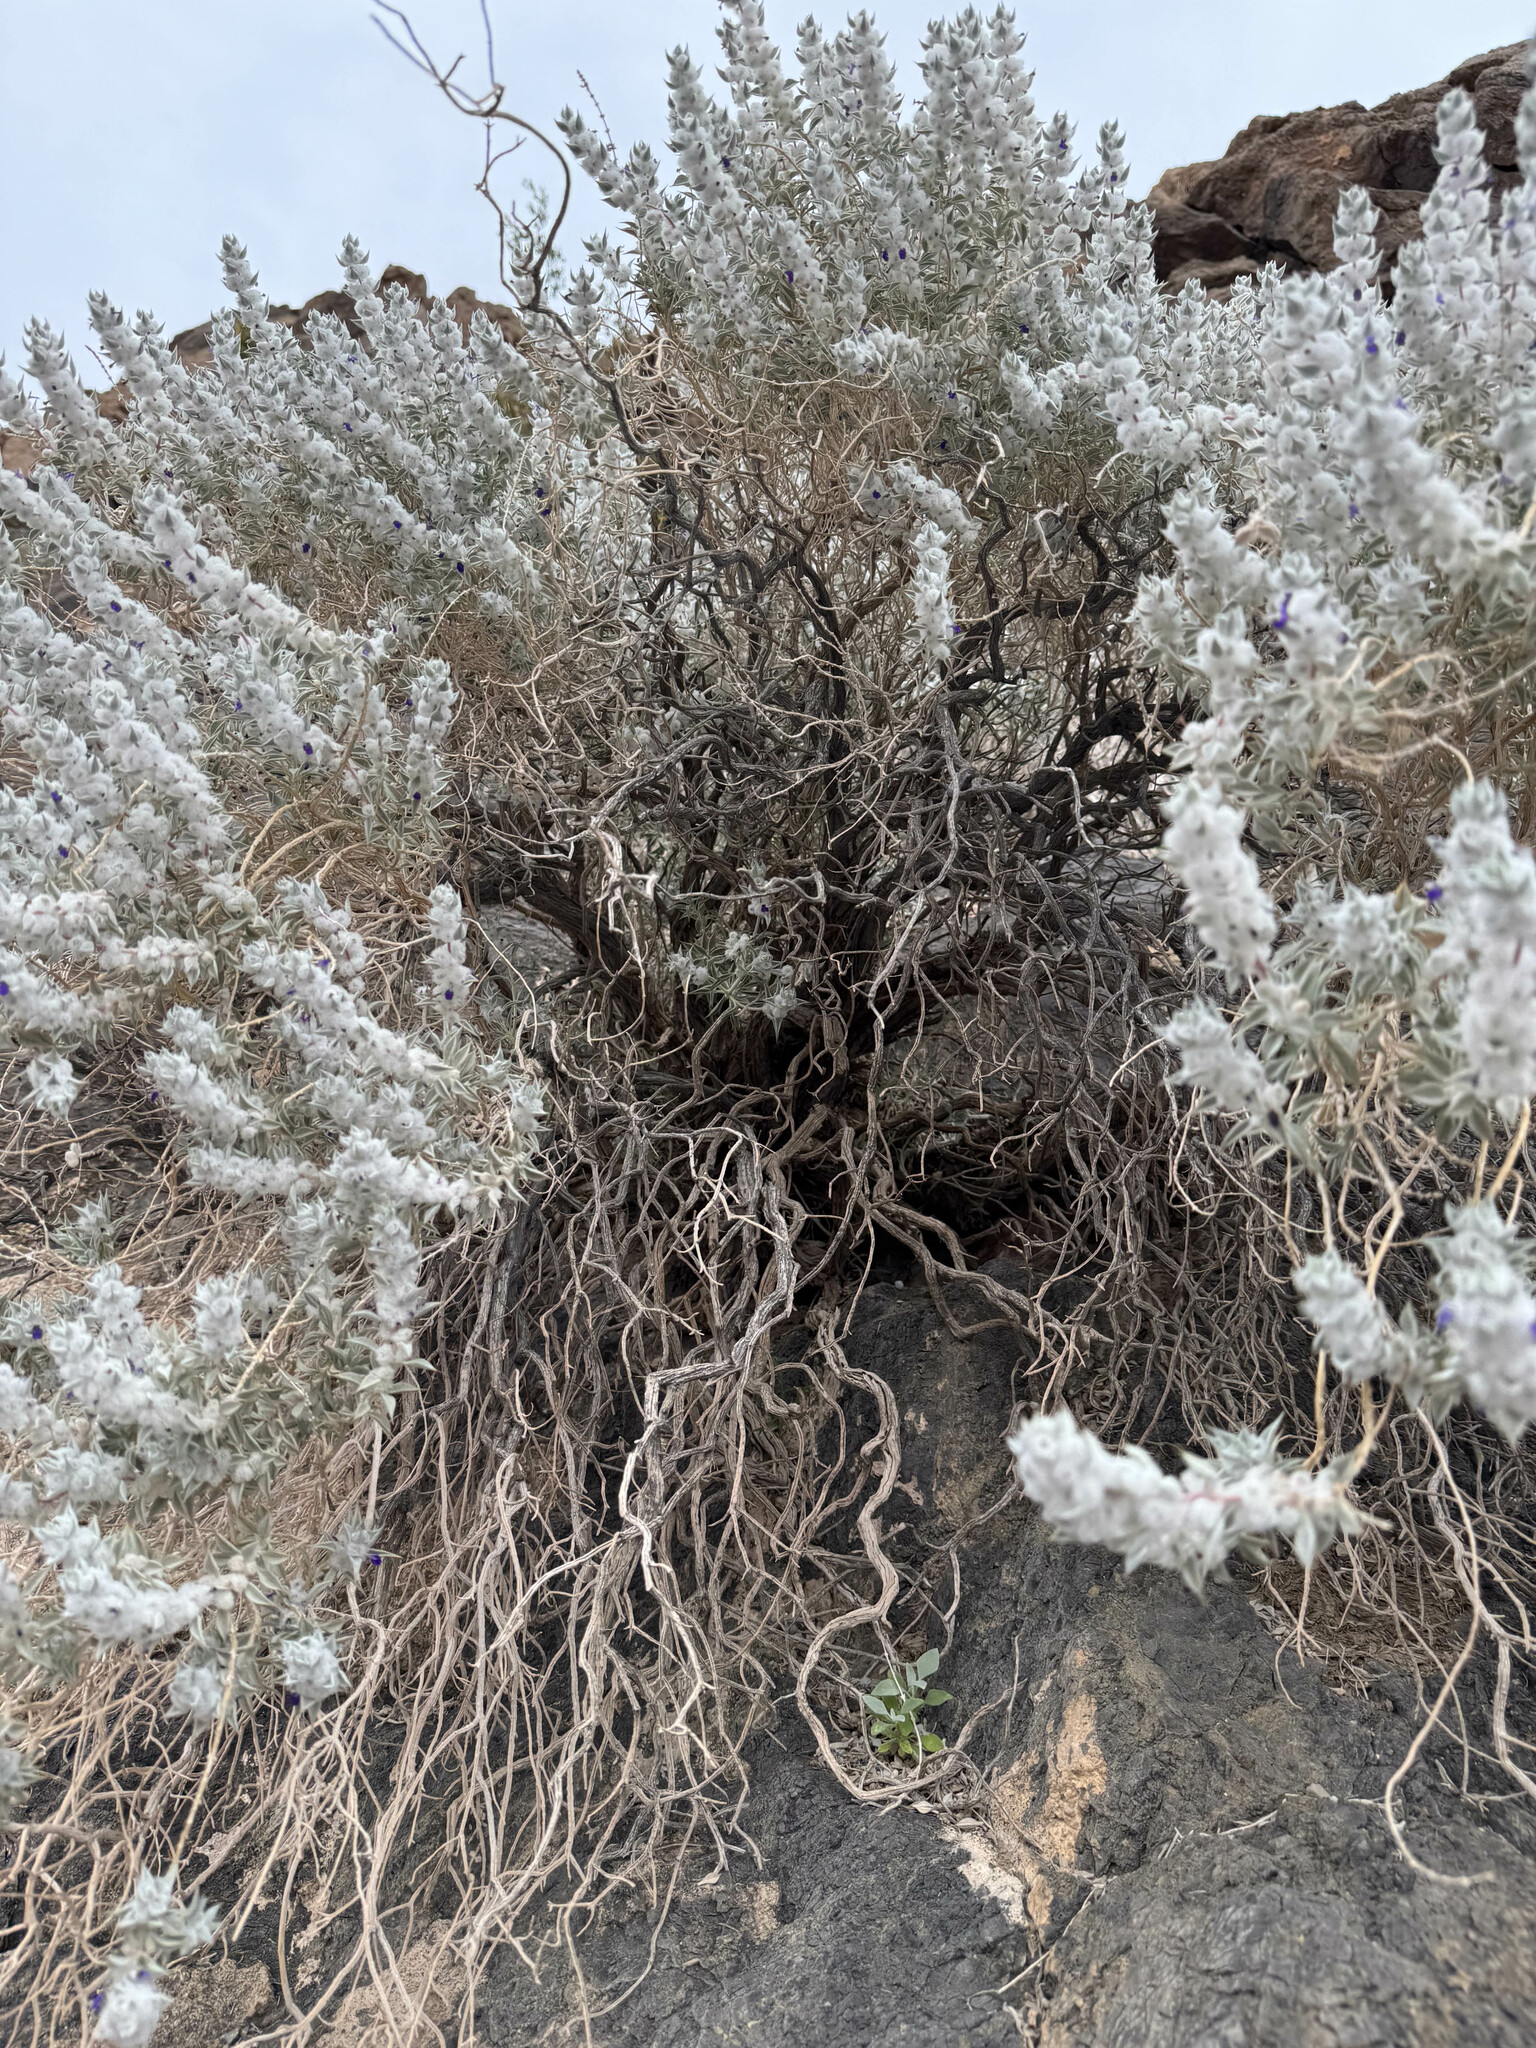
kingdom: Plantae
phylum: Tracheophyta
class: Magnoliopsida
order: Lamiales
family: Lamiaceae
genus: Salvia
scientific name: Salvia funerea
